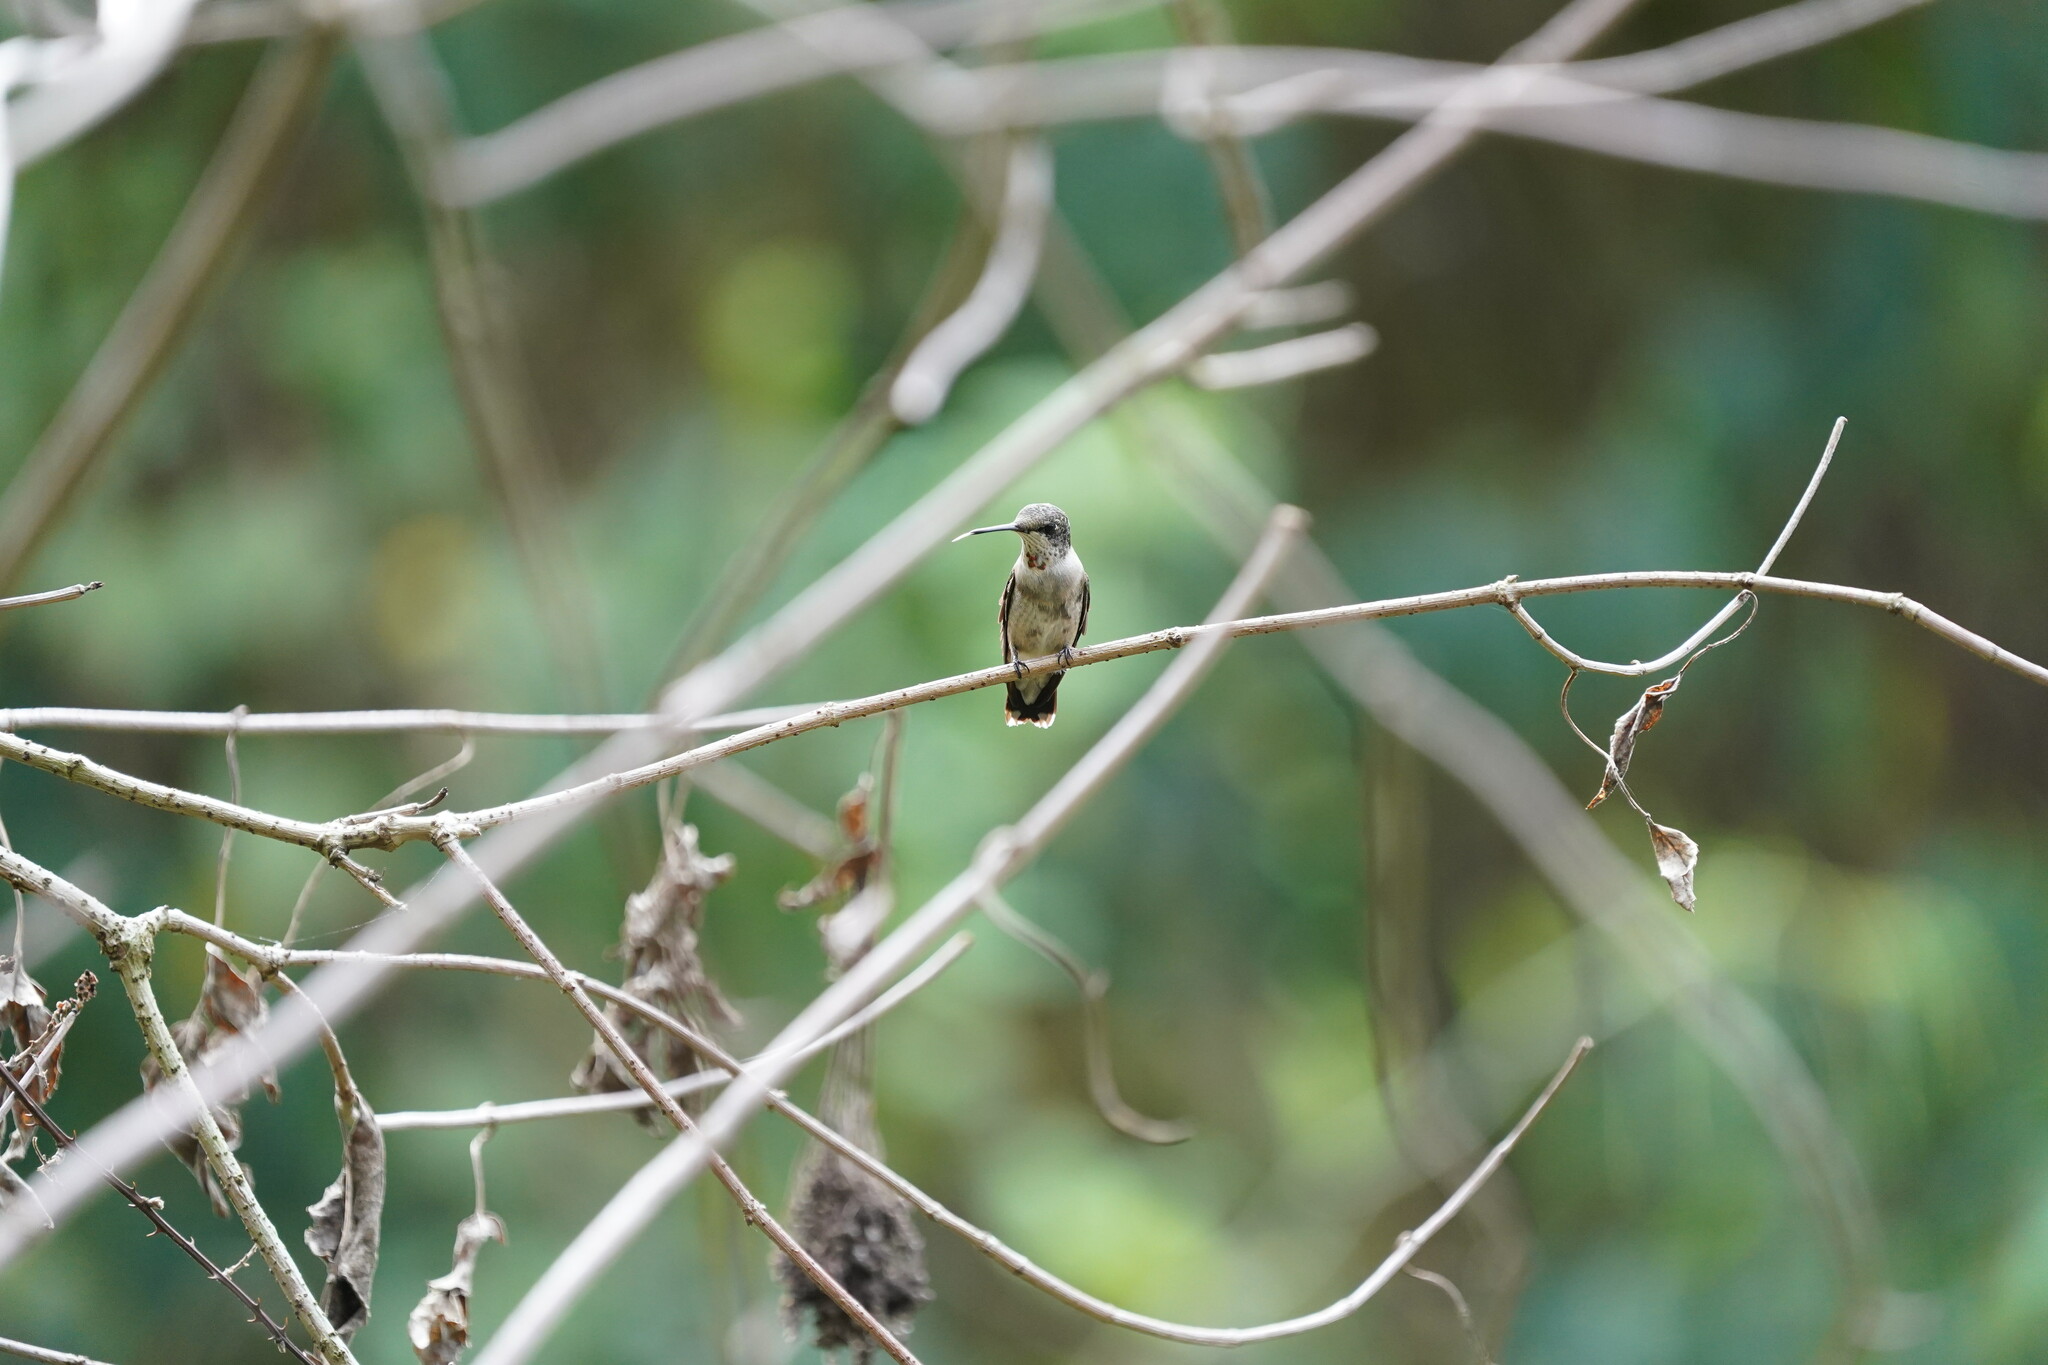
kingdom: Animalia
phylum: Chordata
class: Aves
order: Apodiformes
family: Trochilidae
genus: Archilochus
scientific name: Archilochus colubris
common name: Ruby-throated hummingbird
